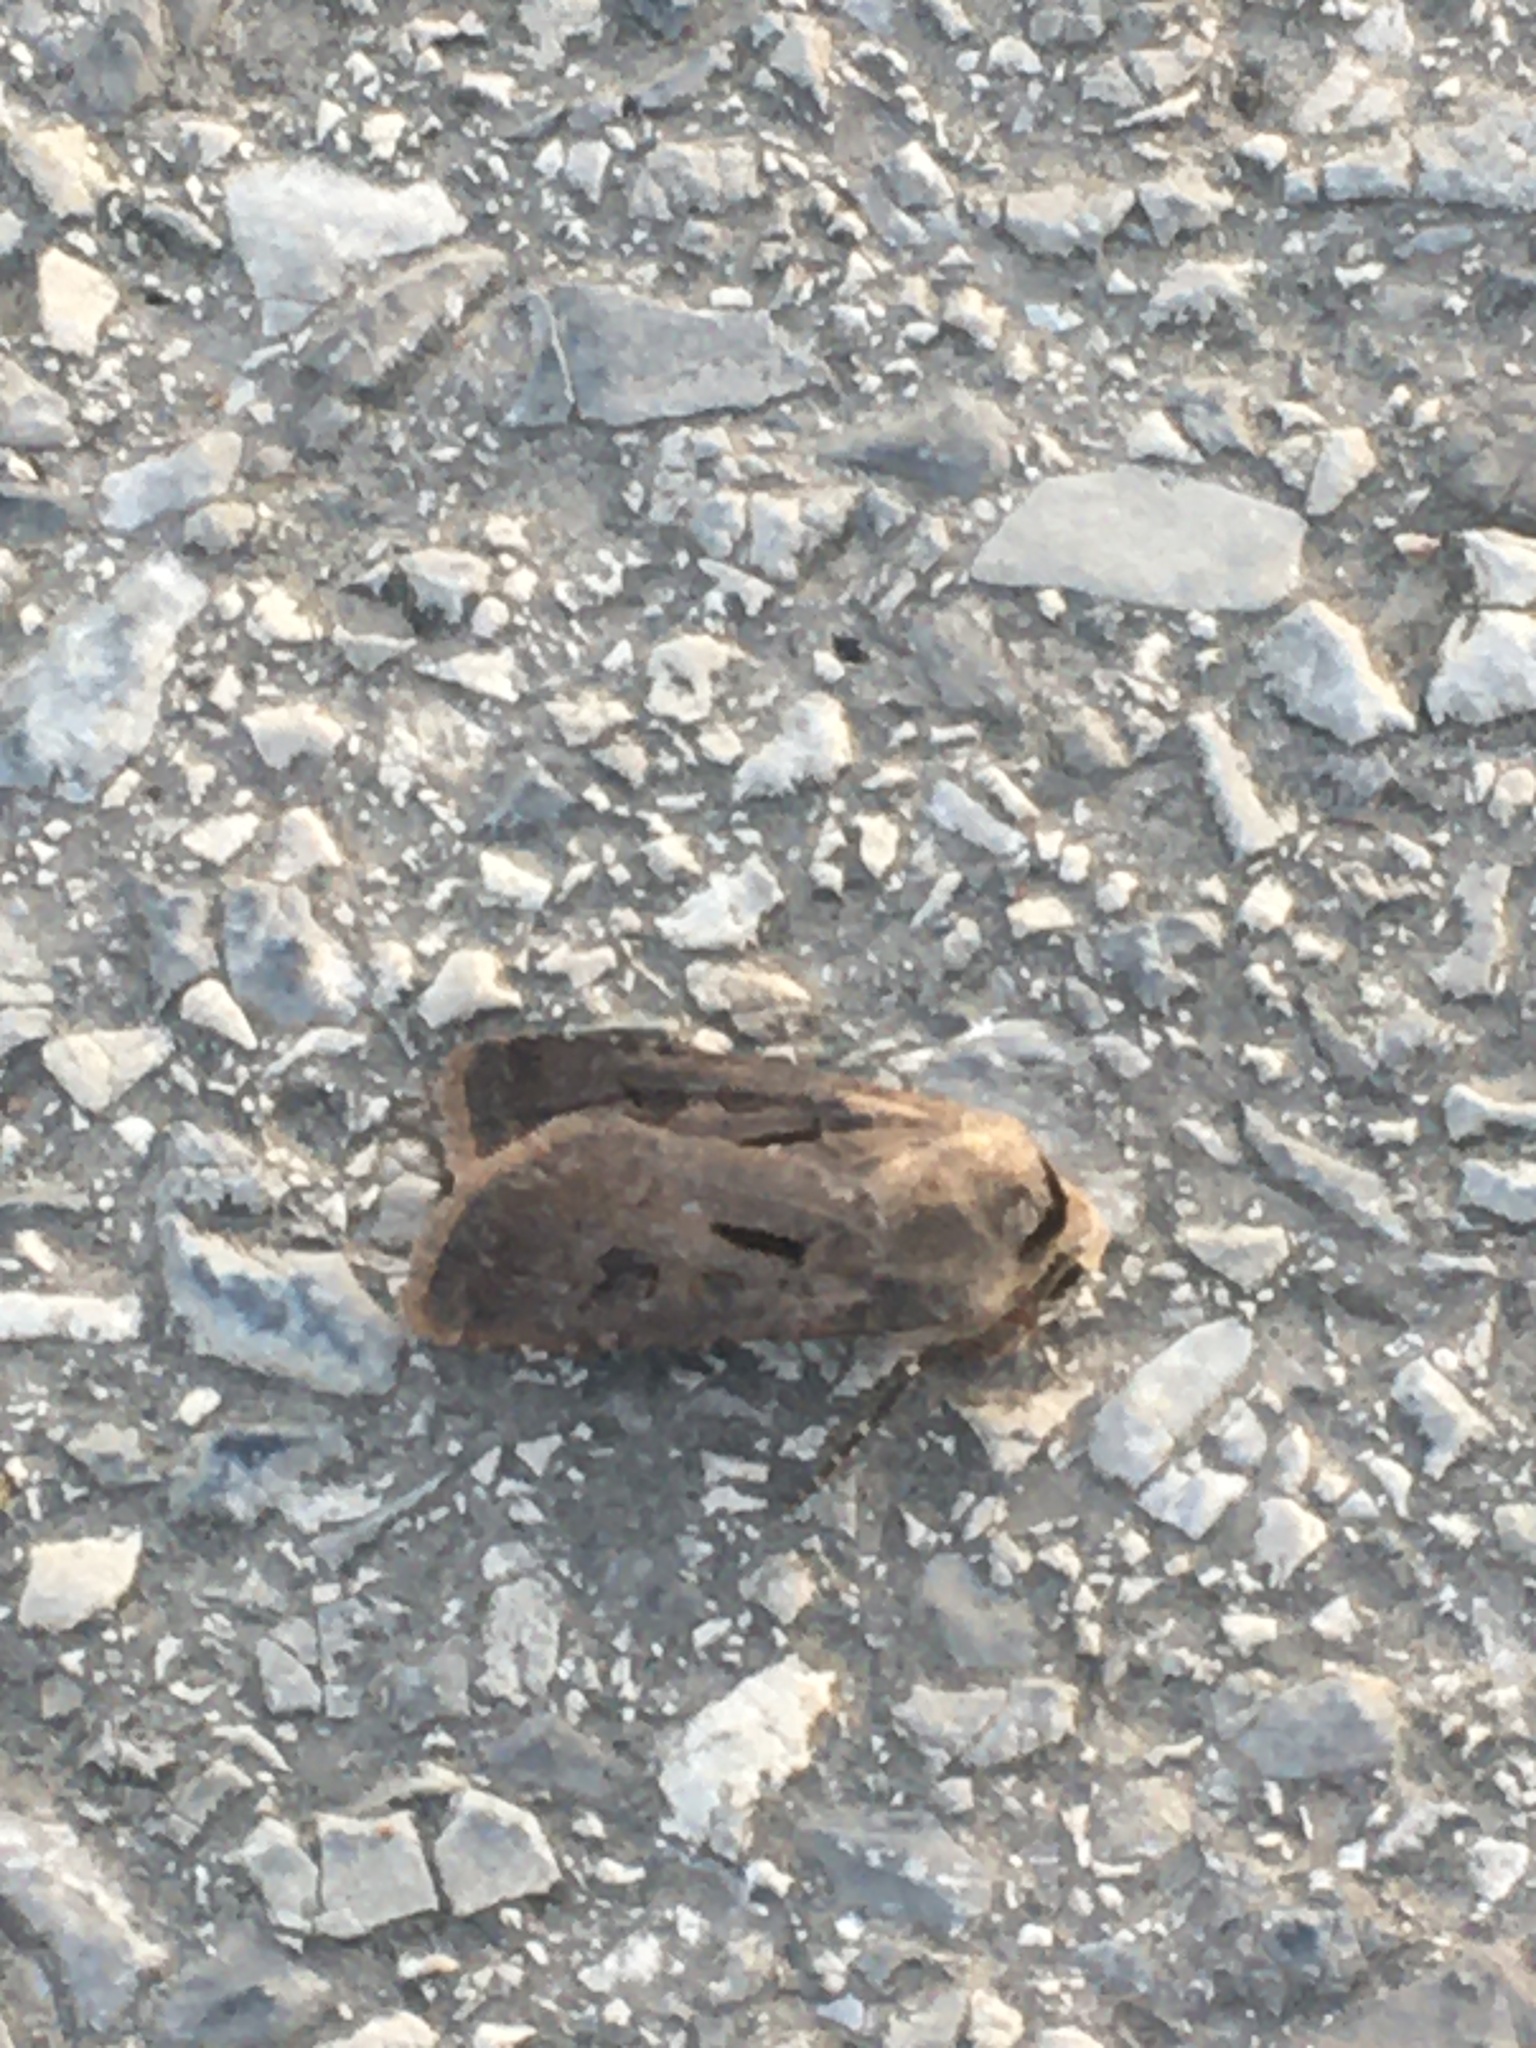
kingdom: Animalia
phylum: Arthropoda
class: Insecta
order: Lepidoptera
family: Noctuidae
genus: Agrotis
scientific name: Agrotis exclamationis
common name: Heart and dart
